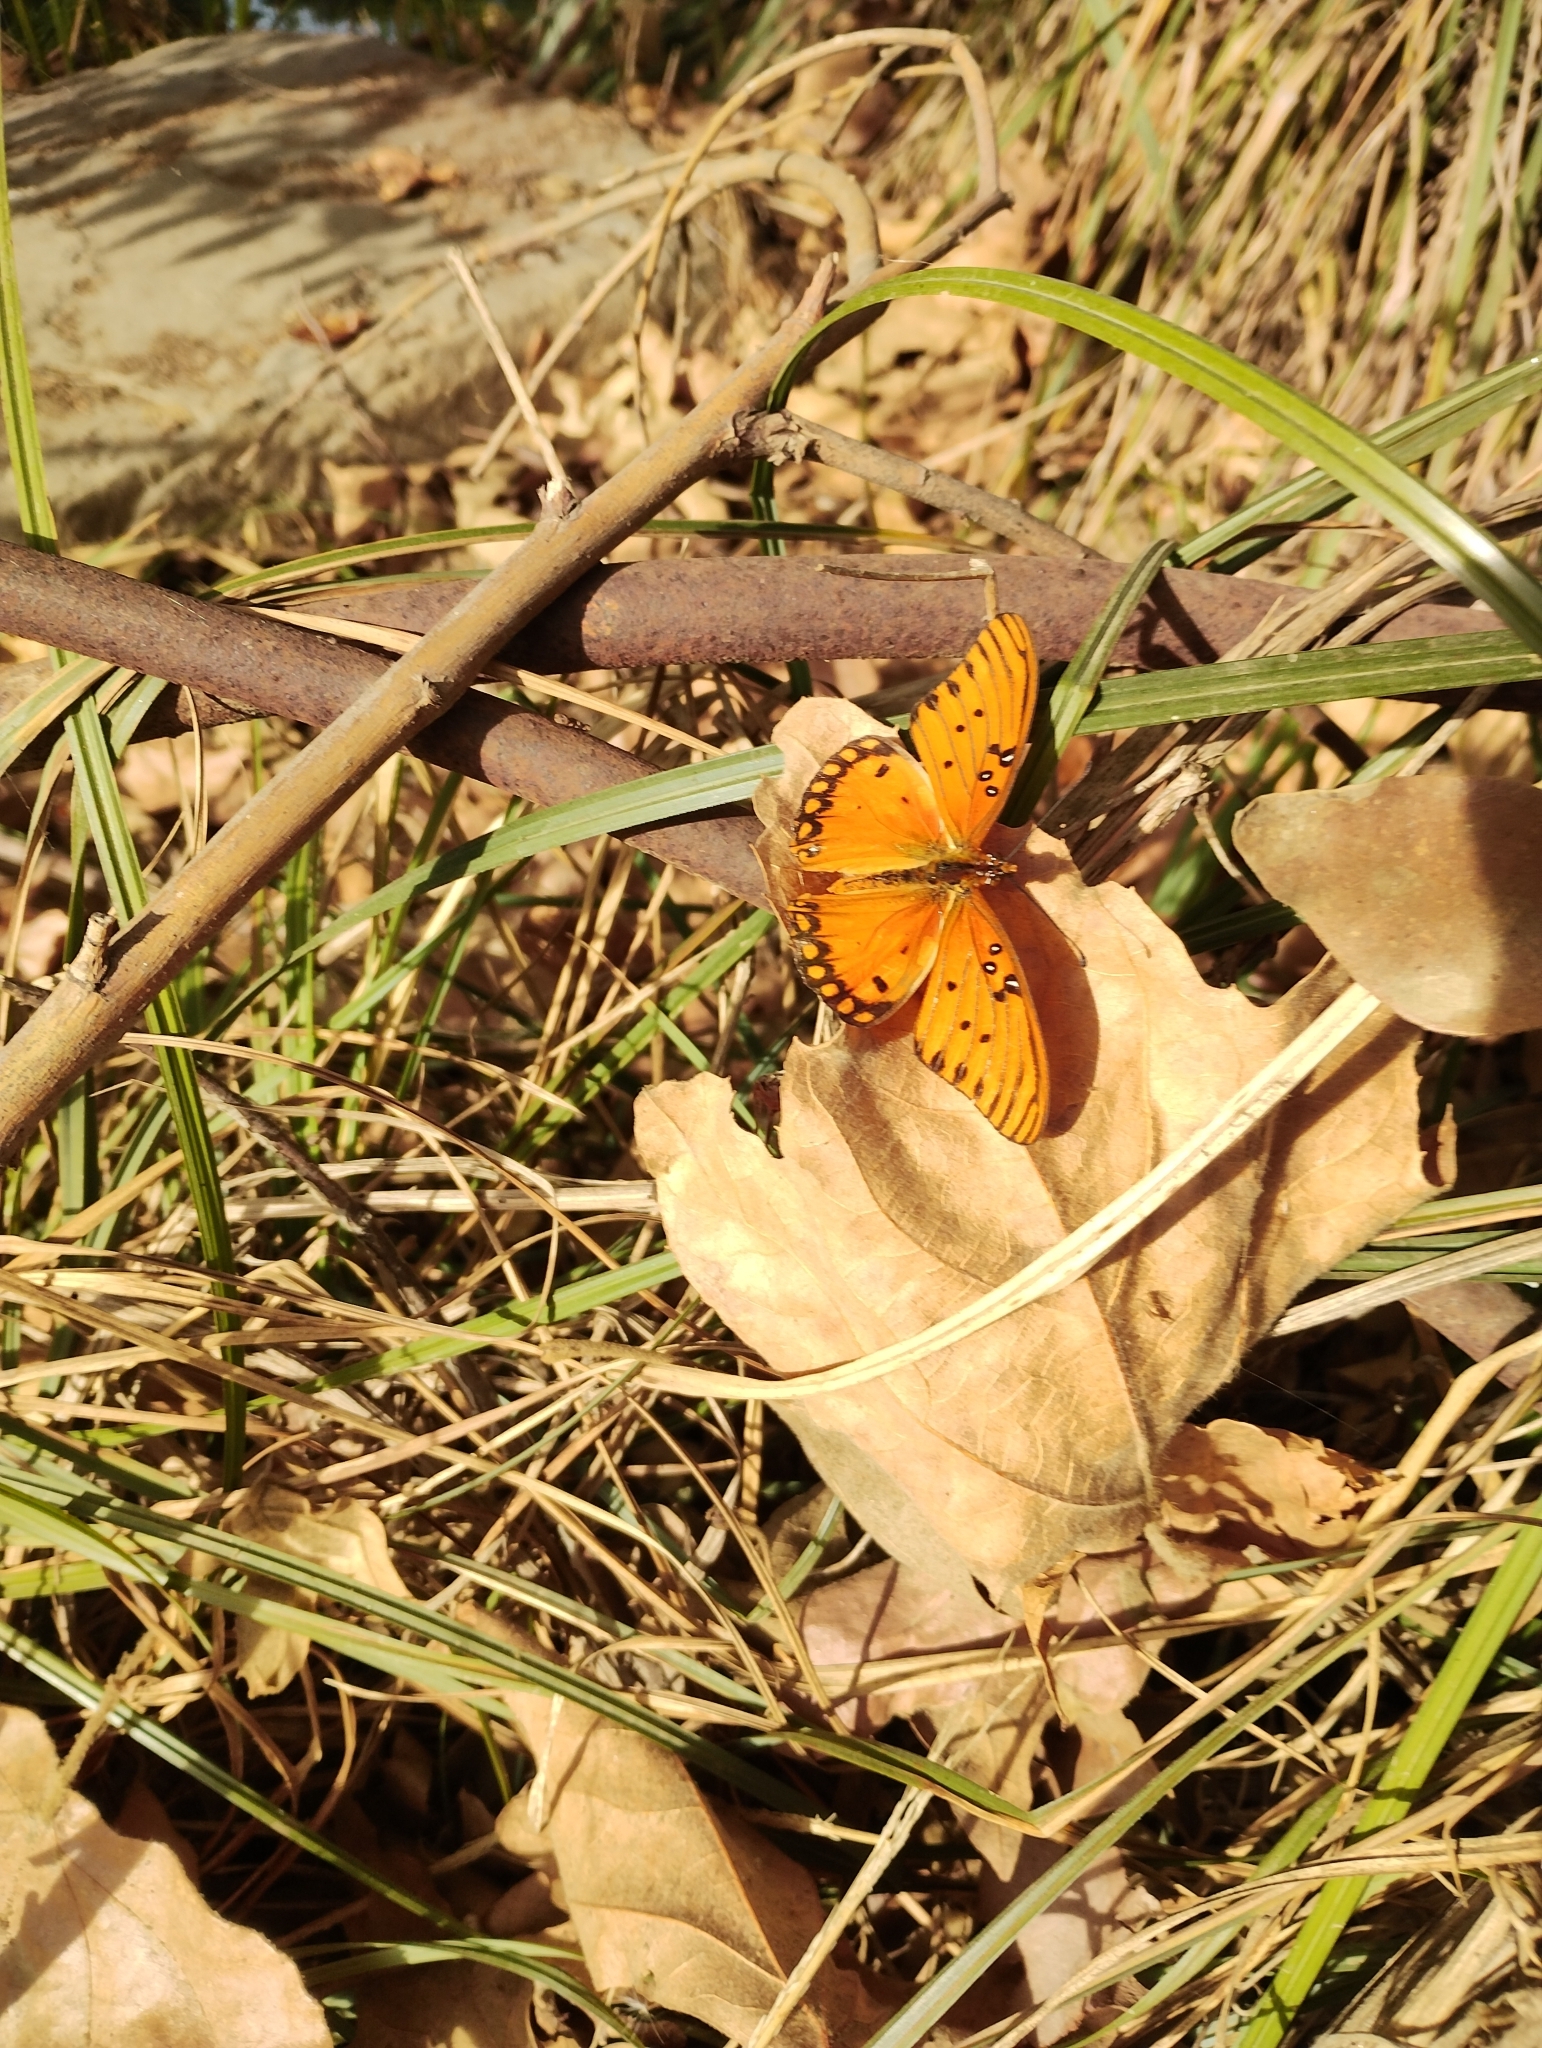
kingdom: Animalia
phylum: Arthropoda
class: Insecta
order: Lepidoptera
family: Nymphalidae
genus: Dione
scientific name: Dione vanillae
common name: Gulf fritillary
